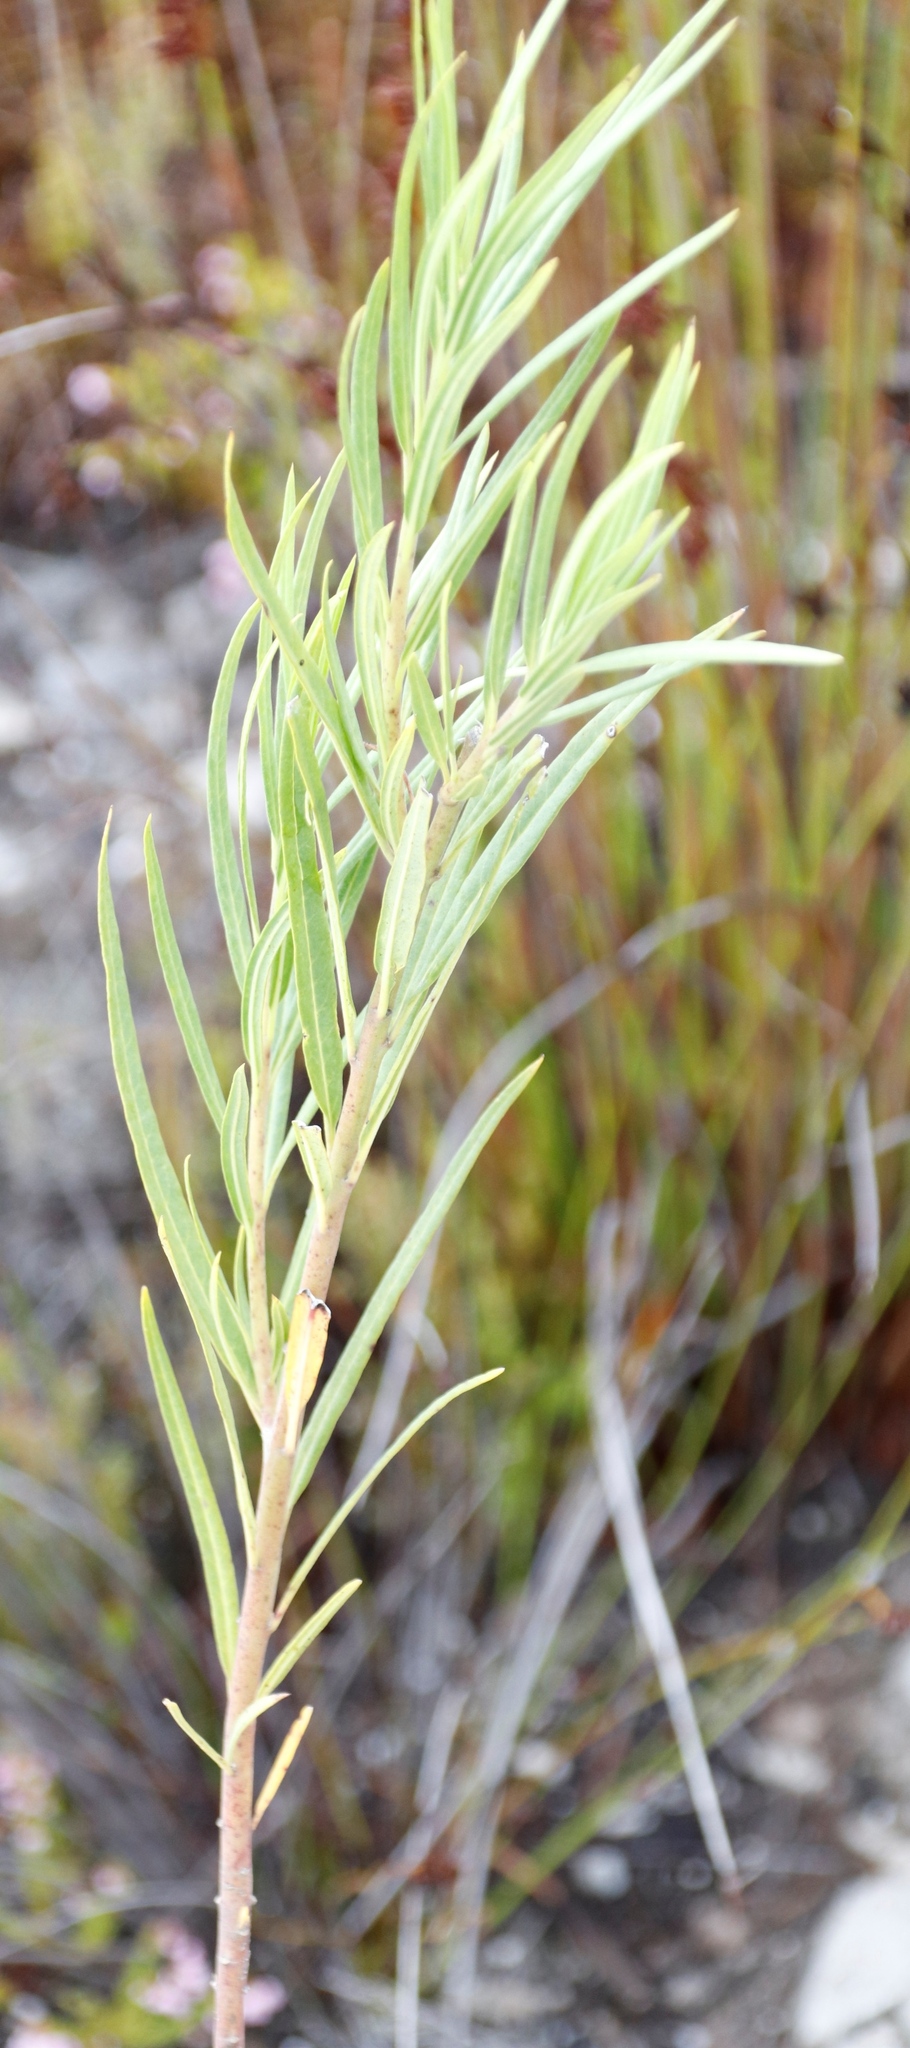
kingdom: Plantae
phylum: Tracheophyta
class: Magnoliopsida
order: Gentianales
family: Apocynaceae
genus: Gomphocarpus
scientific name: Gomphocarpus fruticosus
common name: Milkweed
